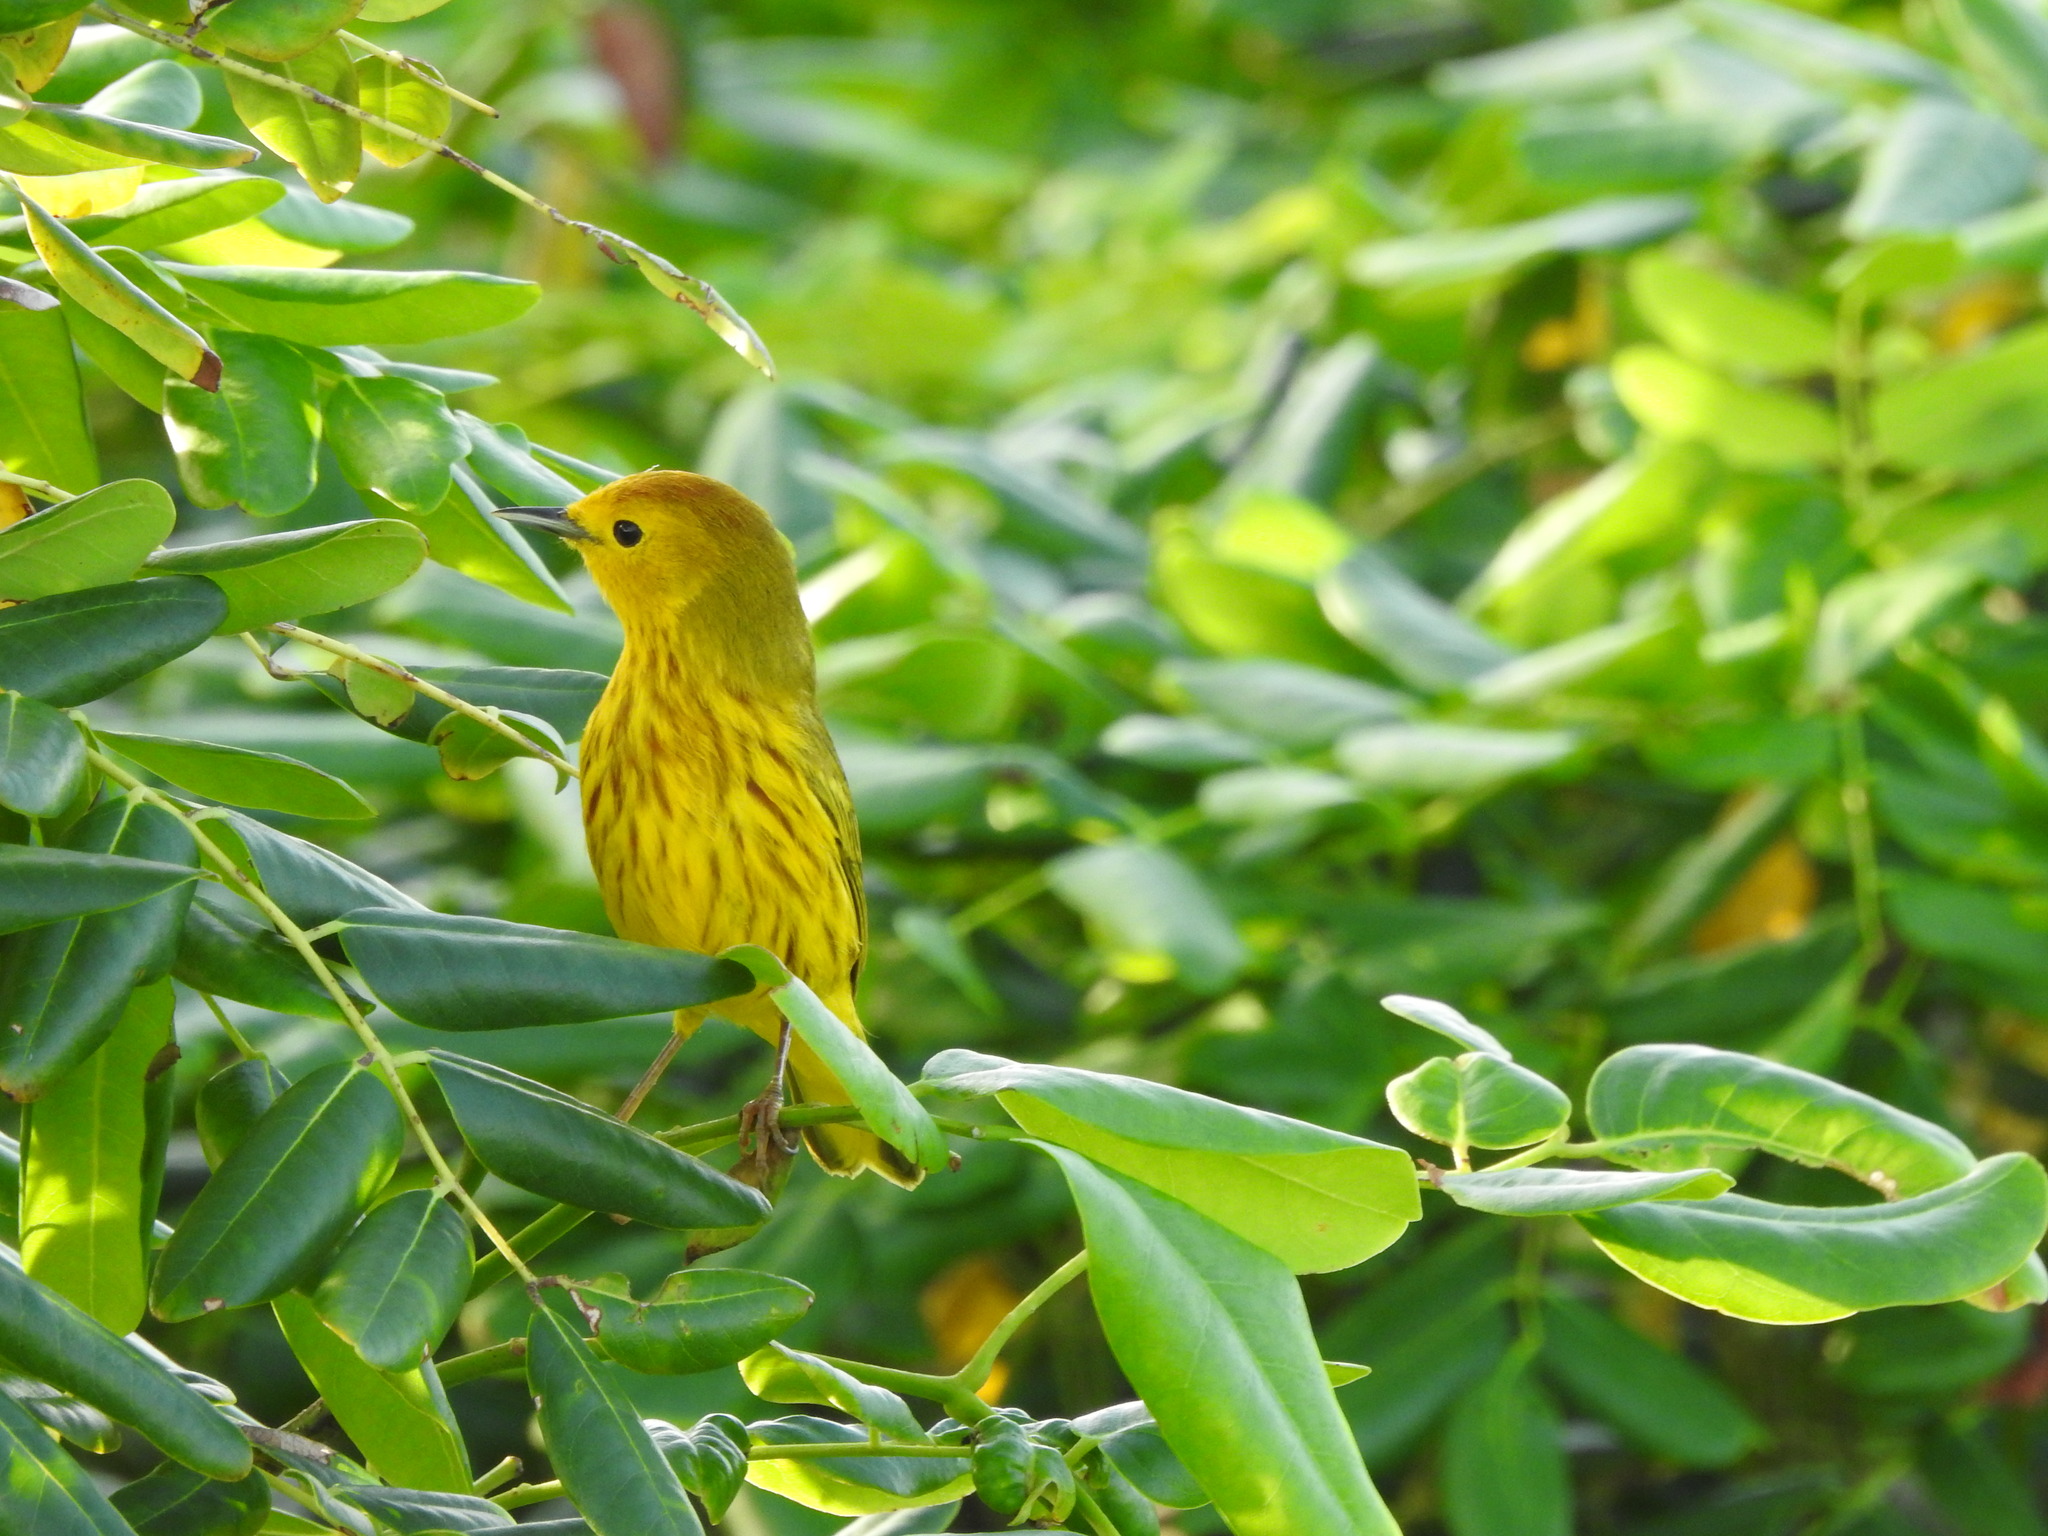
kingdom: Animalia
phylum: Chordata
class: Aves
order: Passeriformes
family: Parulidae
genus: Setophaga
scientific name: Setophaga petechia
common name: Yellow warbler
